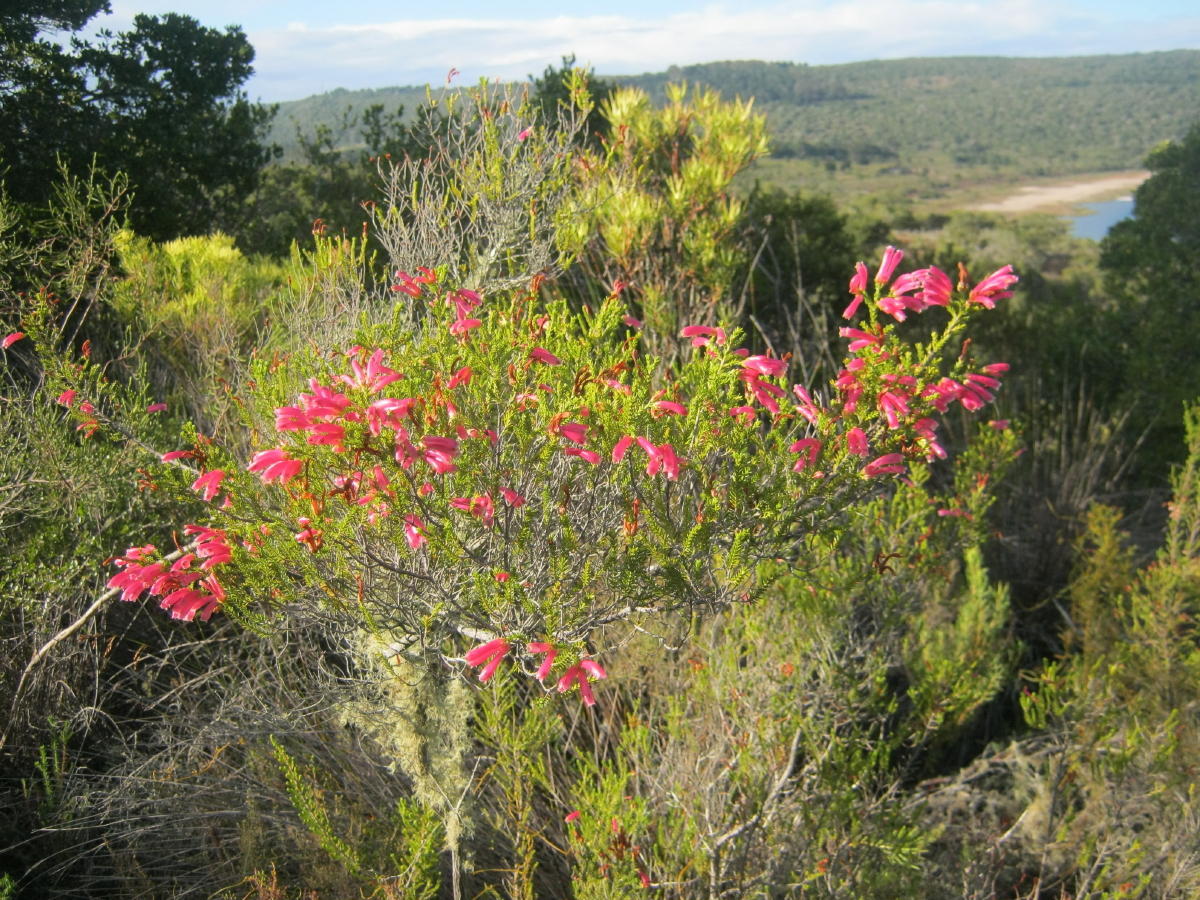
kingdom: Plantae
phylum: Tracheophyta
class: Magnoliopsida
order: Ericales
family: Ericaceae
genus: Erica
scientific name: Erica discolor
